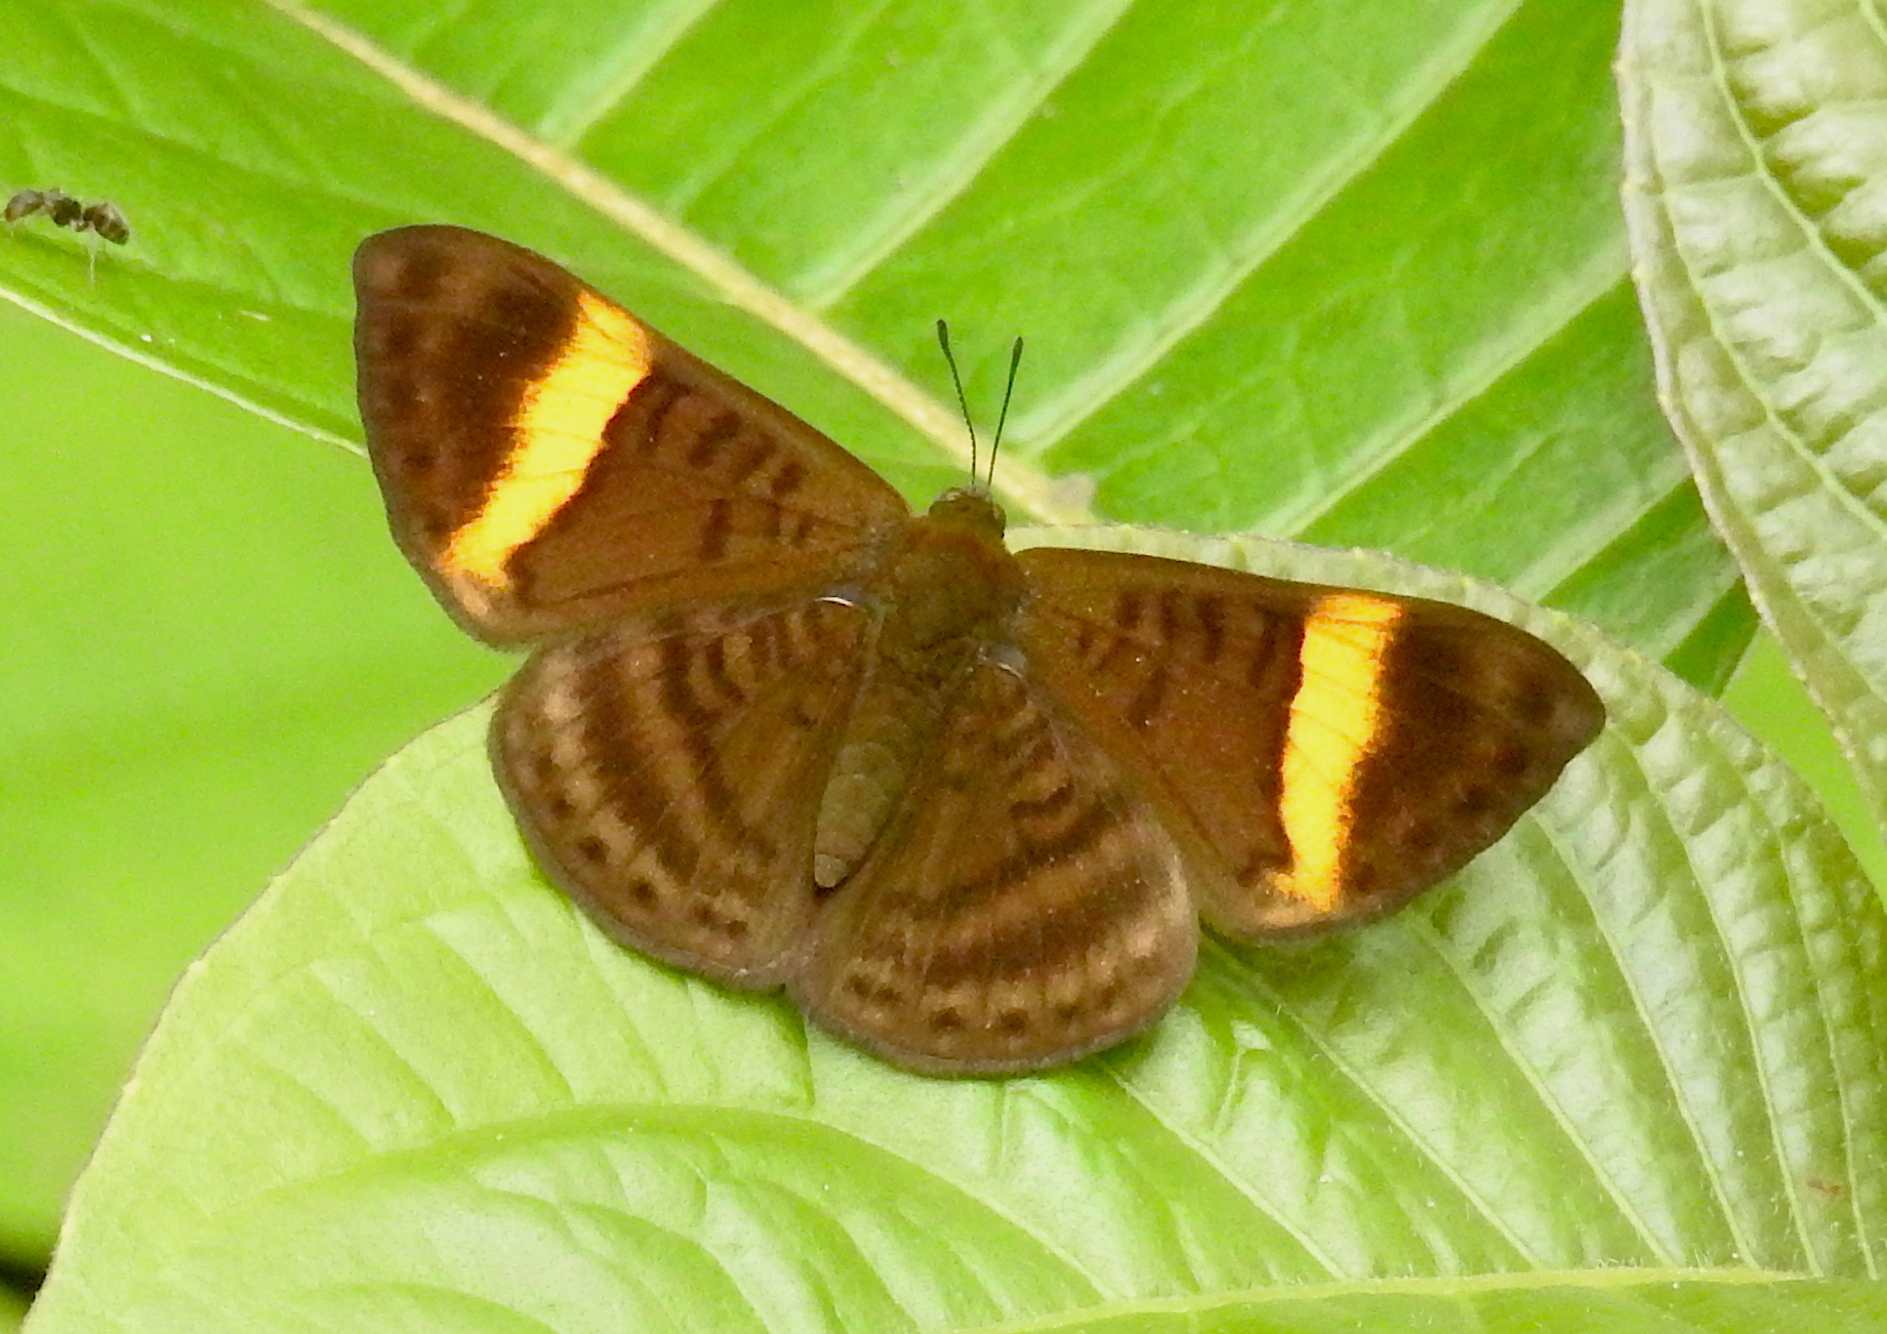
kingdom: Animalia
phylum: Arthropoda
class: Insecta
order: Lepidoptera
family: Lycaenidae
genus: Emesis
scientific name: Emesis cypria
